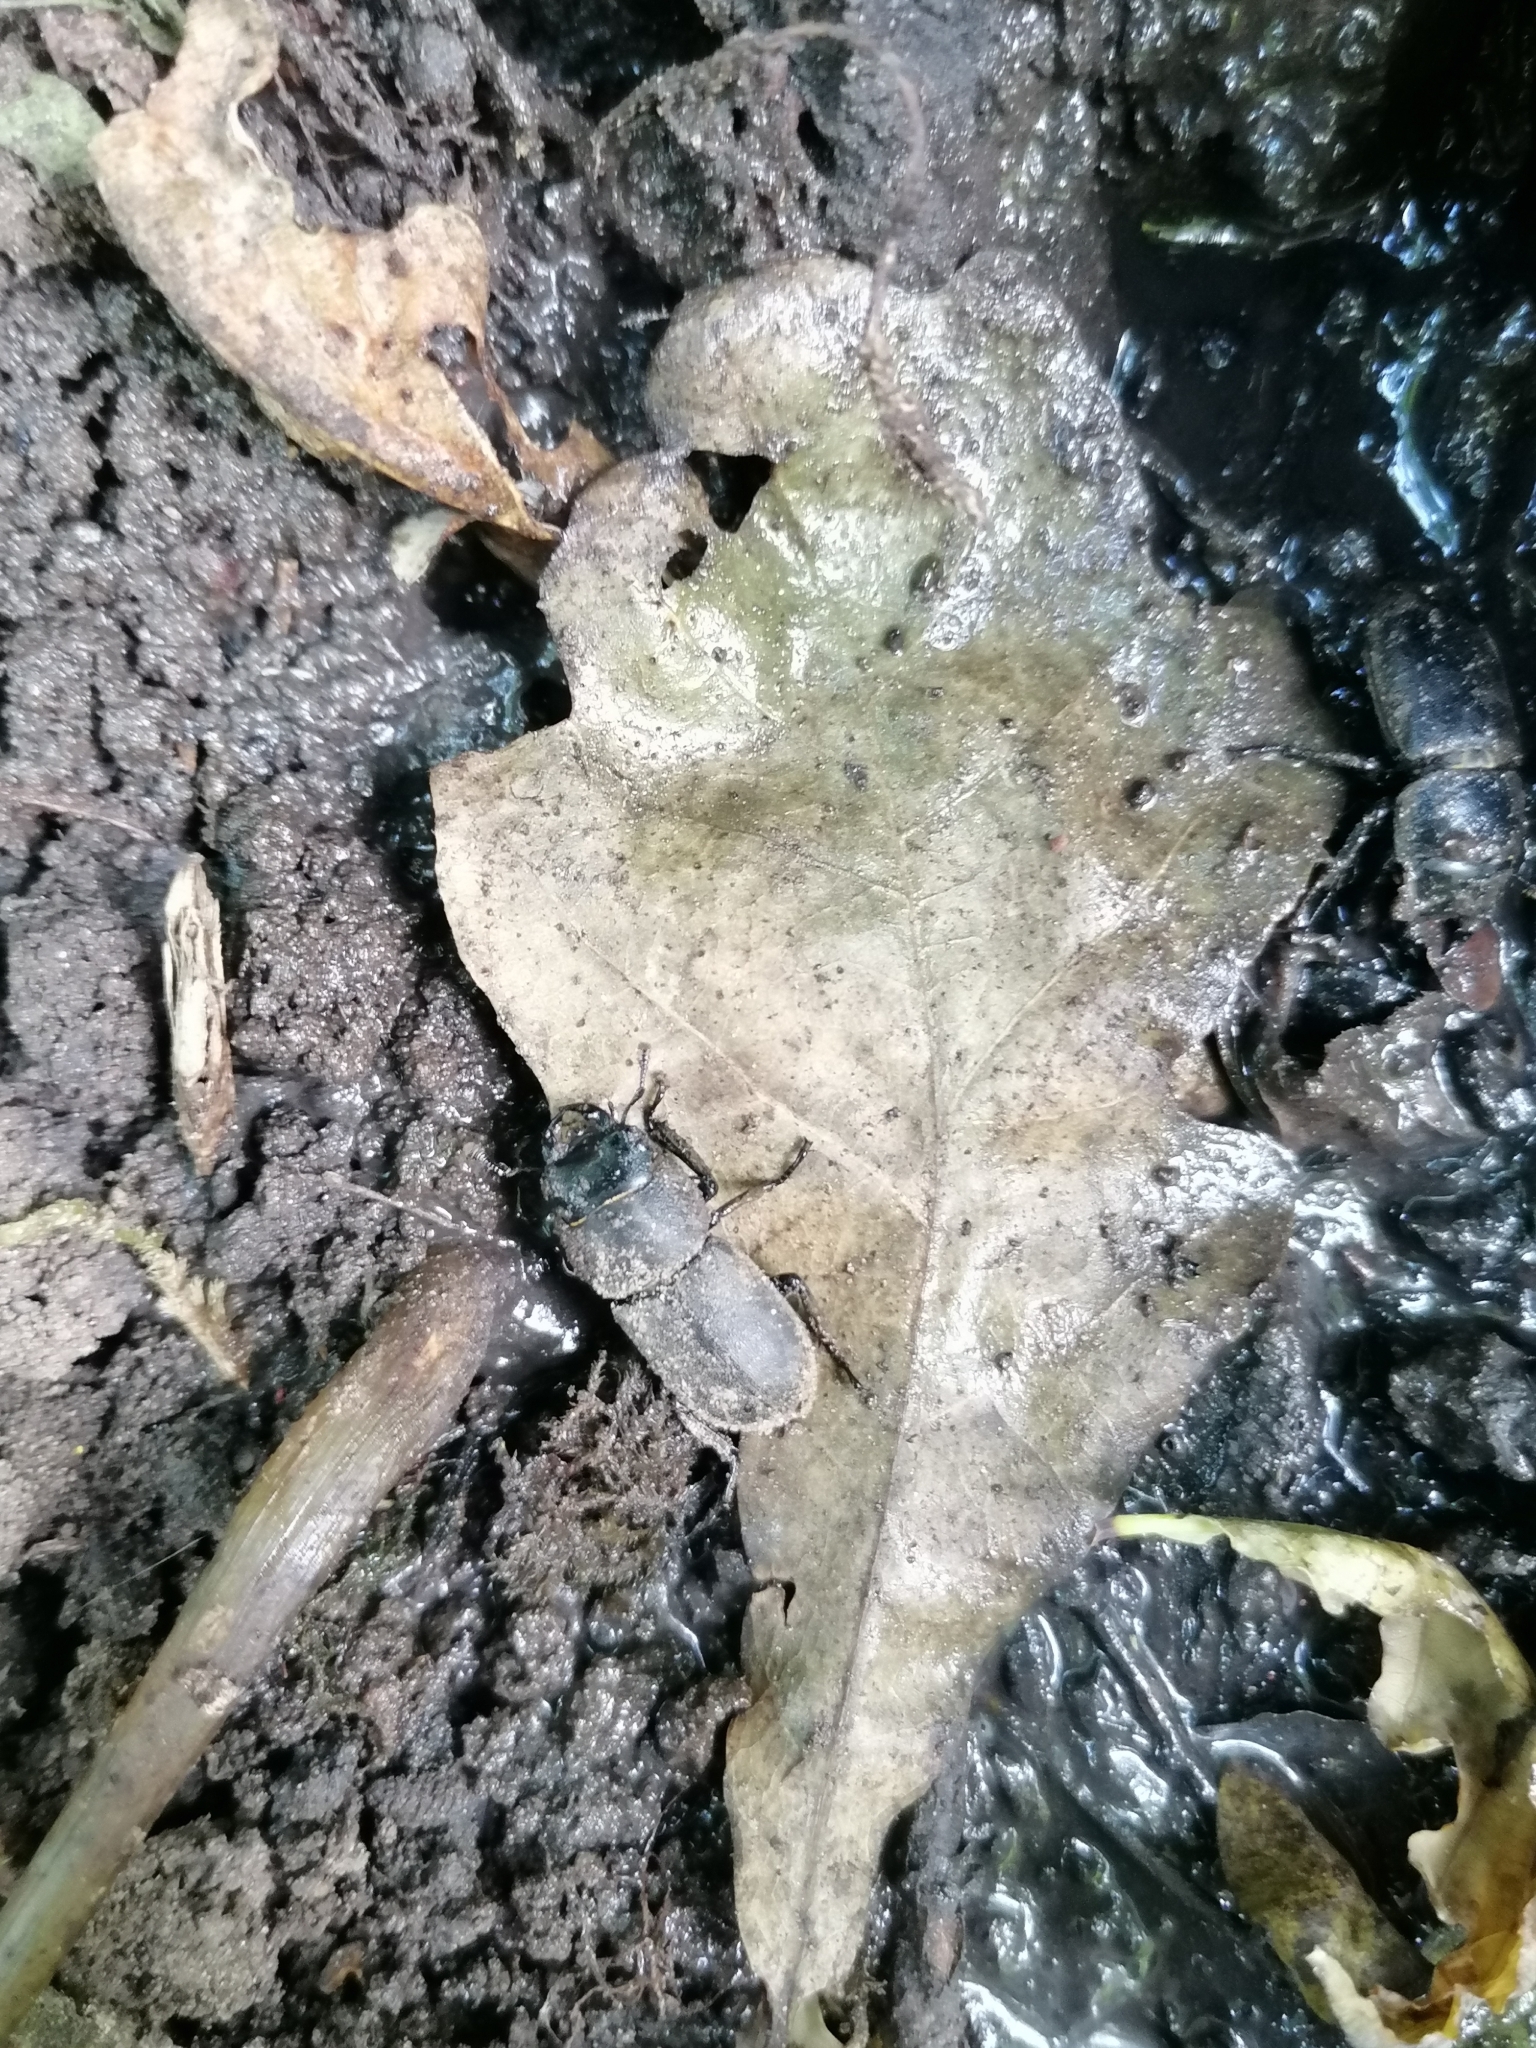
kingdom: Animalia
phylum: Arthropoda
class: Insecta
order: Coleoptera
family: Lucanidae
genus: Dorcus
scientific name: Dorcus parallelipipedus
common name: Lesser stag beetle
